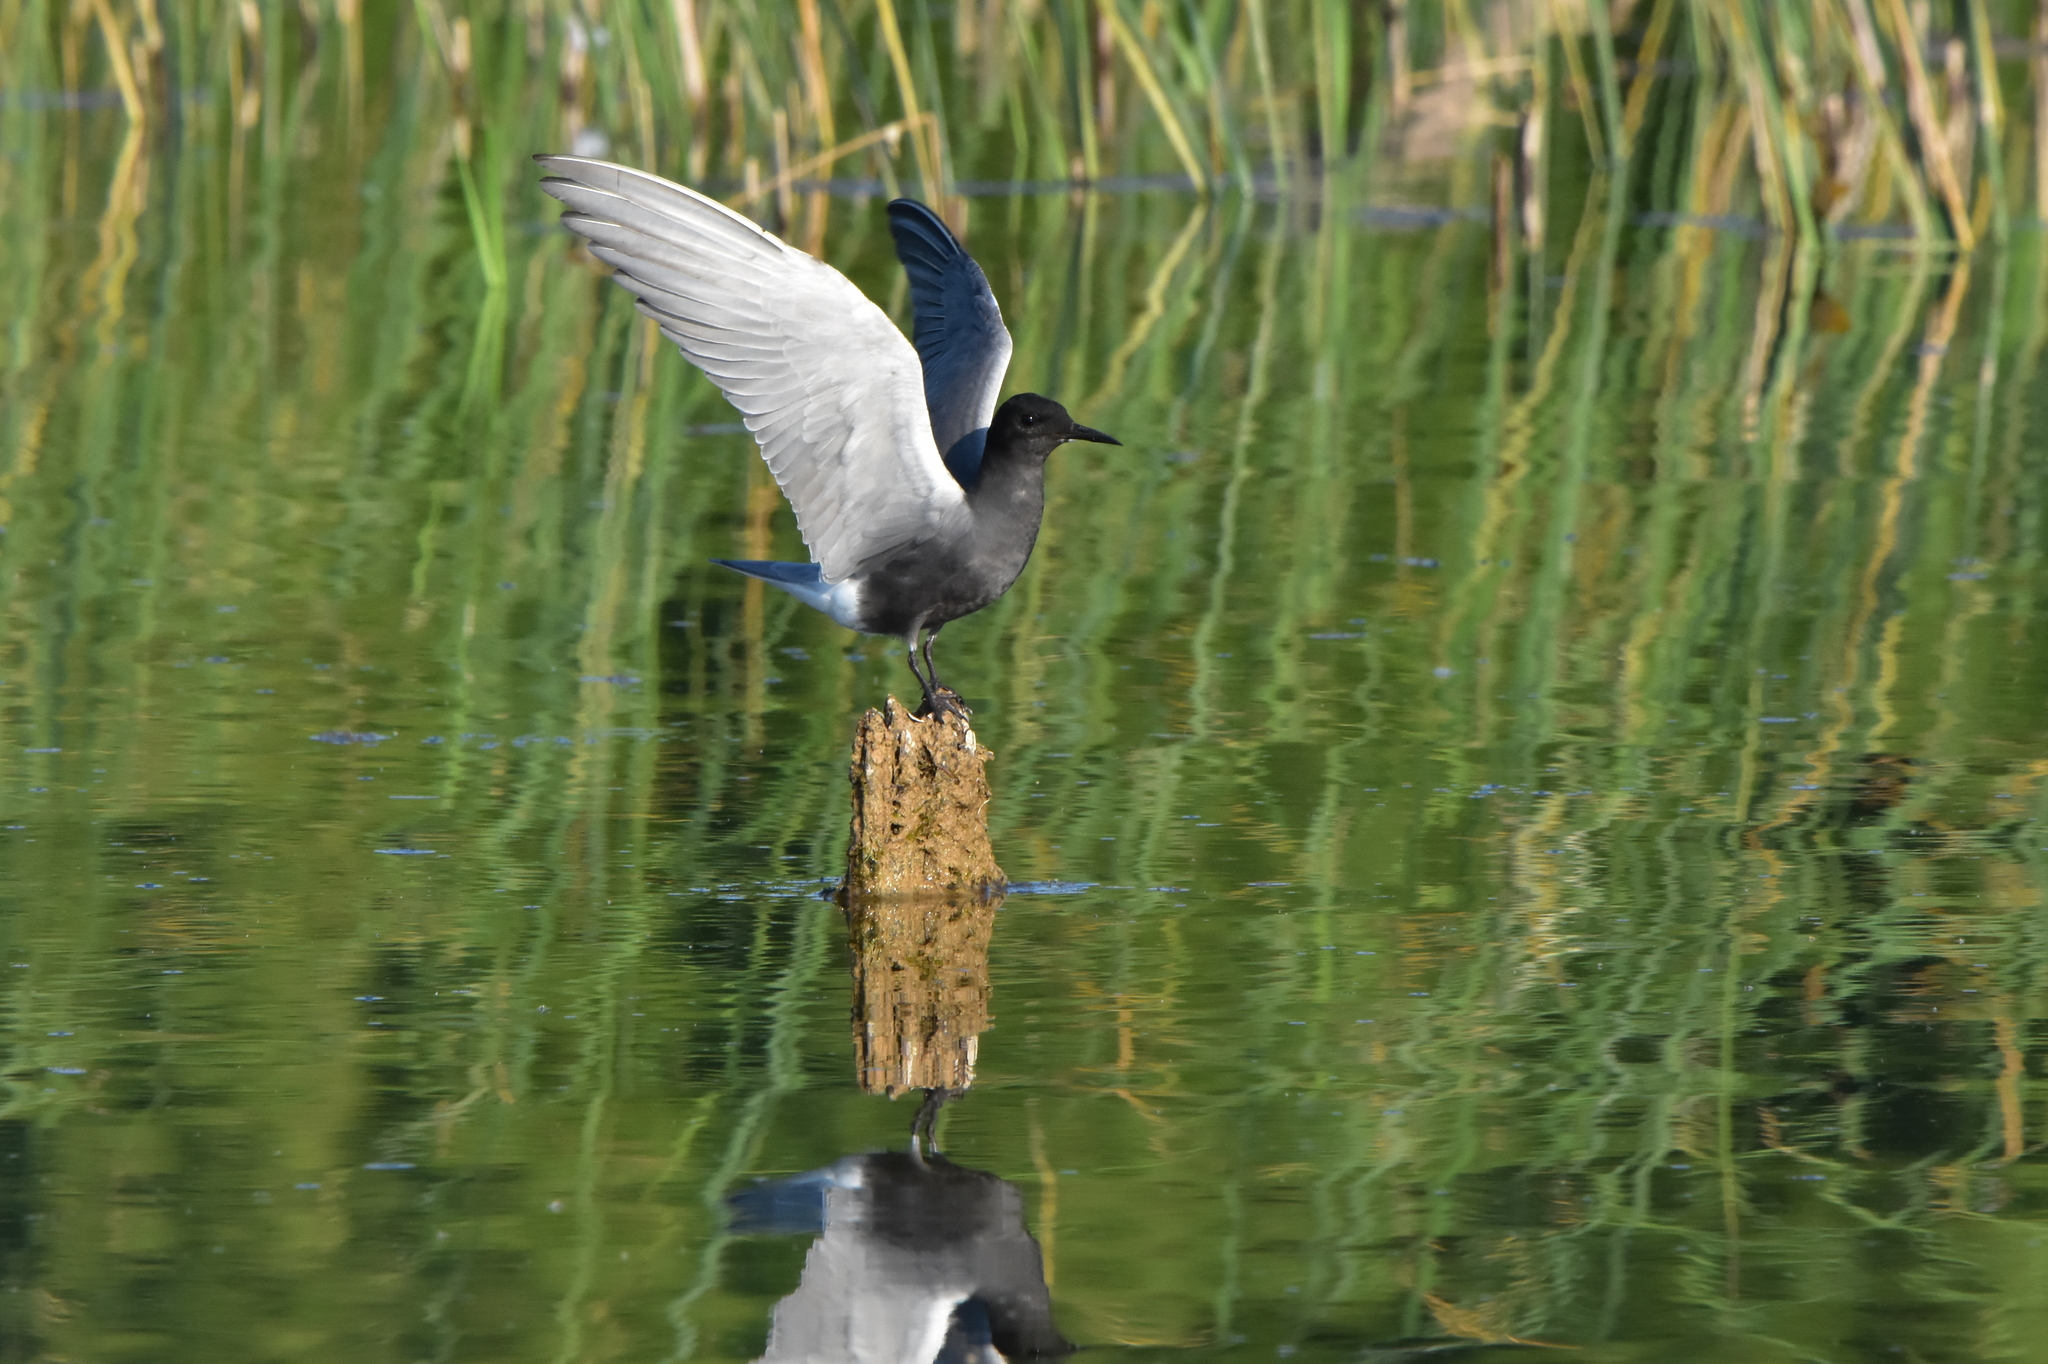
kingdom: Animalia
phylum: Chordata
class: Aves
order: Charadriiformes
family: Laridae
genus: Chlidonias
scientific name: Chlidonias niger
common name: Black tern
